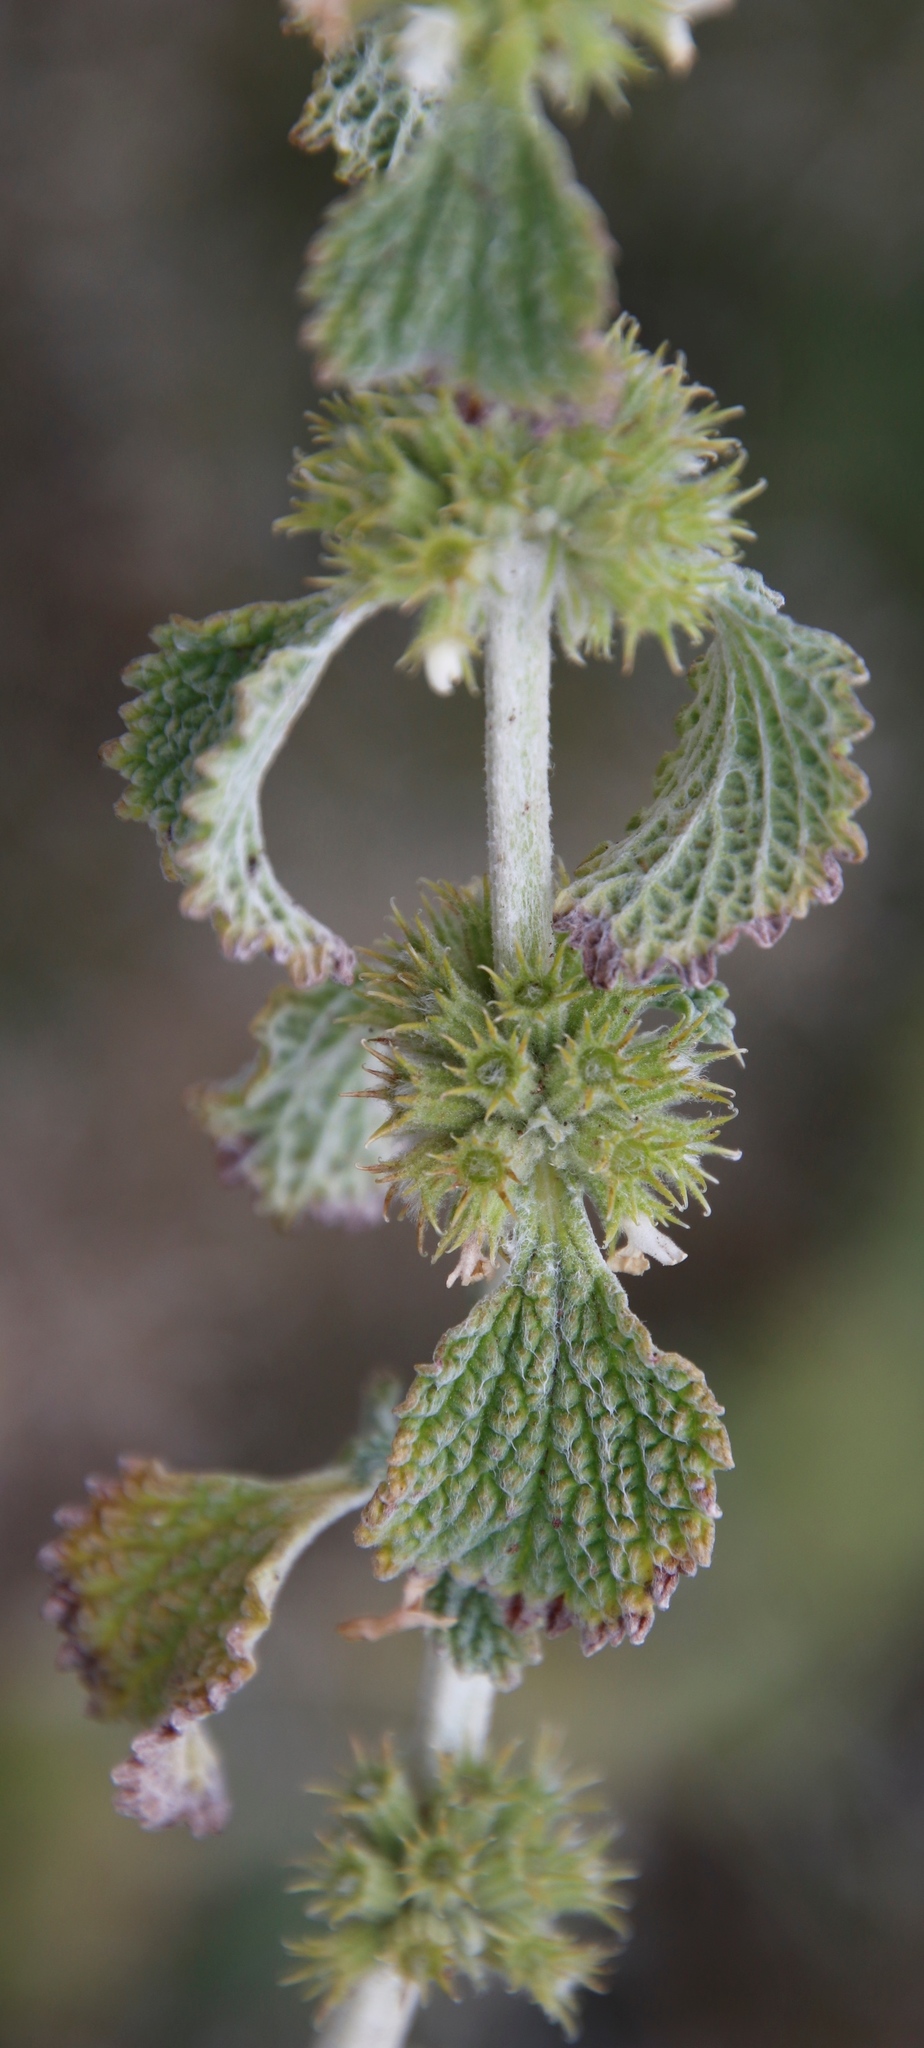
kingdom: Plantae
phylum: Tracheophyta
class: Magnoliopsida
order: Lamiales
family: Lamiaceae
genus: Marrubium
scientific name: Marrubium vulgare
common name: Horehound
